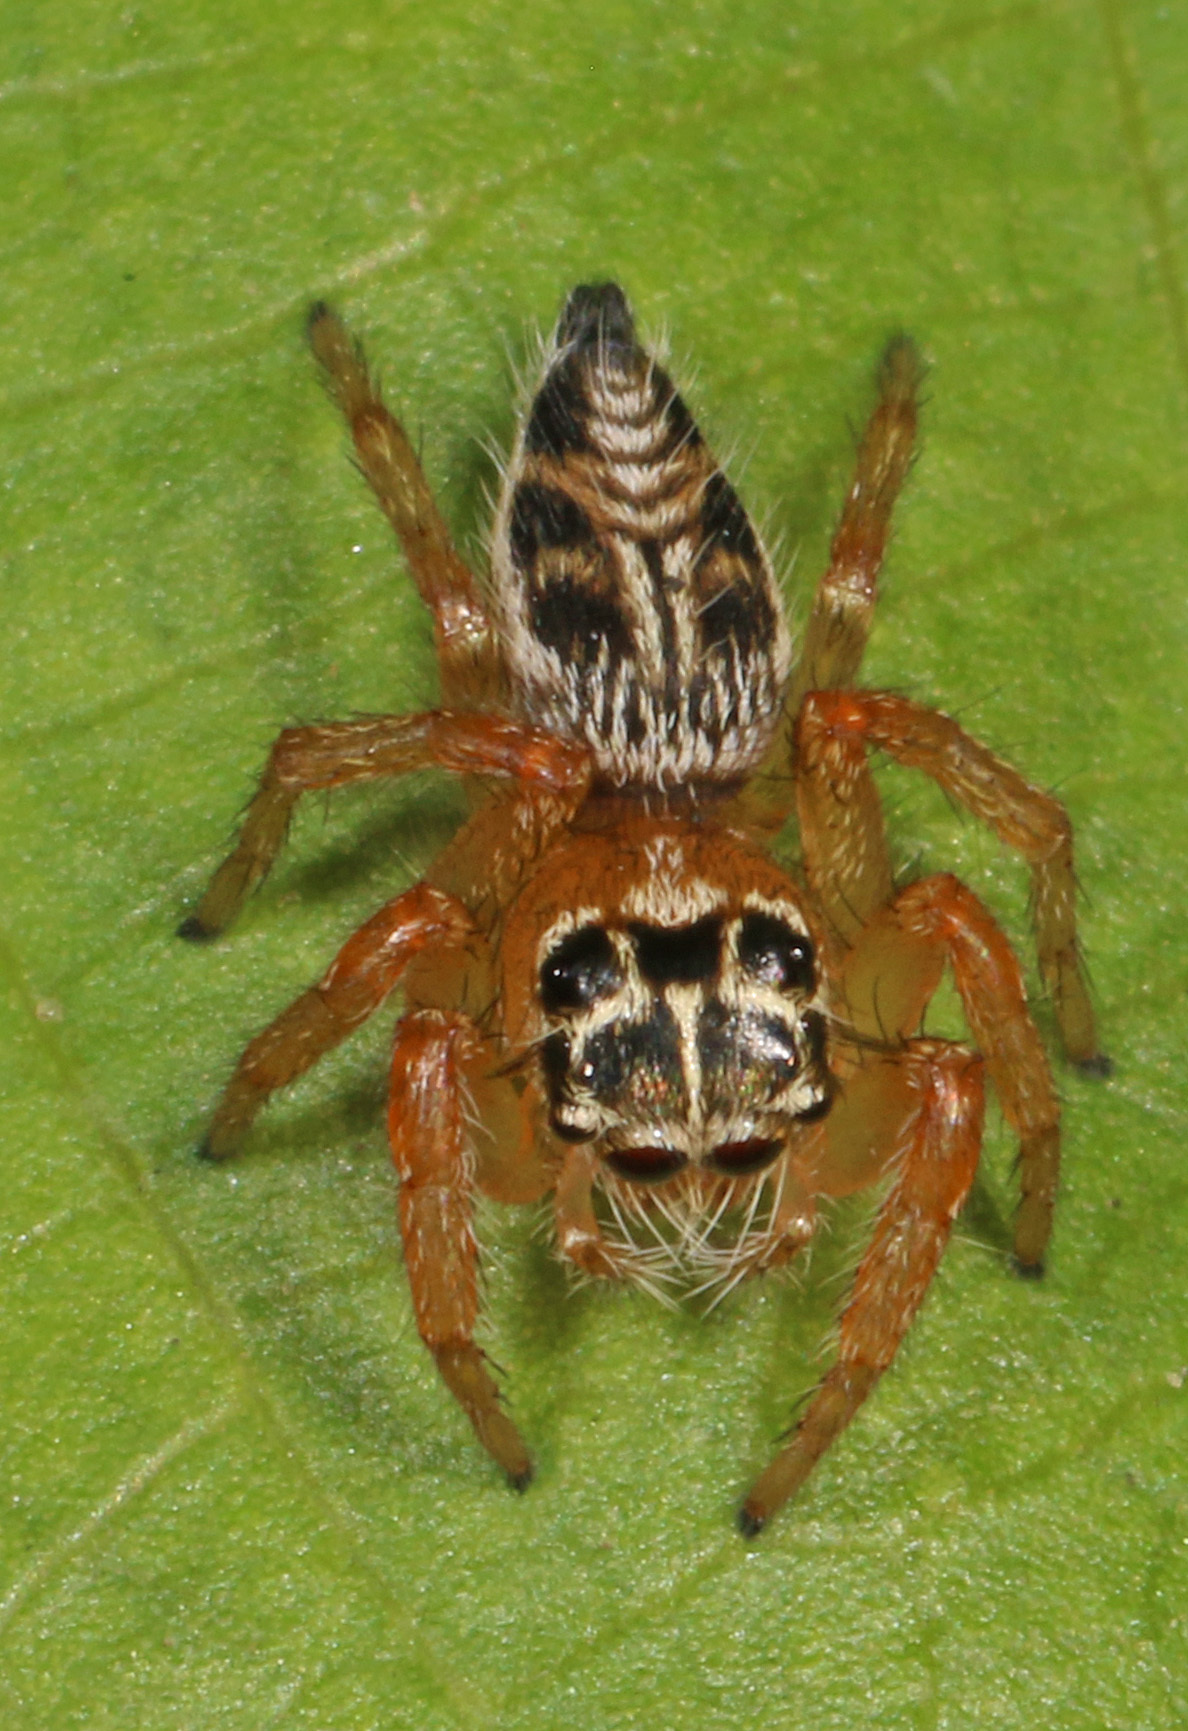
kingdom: Animalia
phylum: Arthropoda
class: Arachnida
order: Araneae
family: Salticidae
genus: Hyllus
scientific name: Hyllus argyrotoxus
